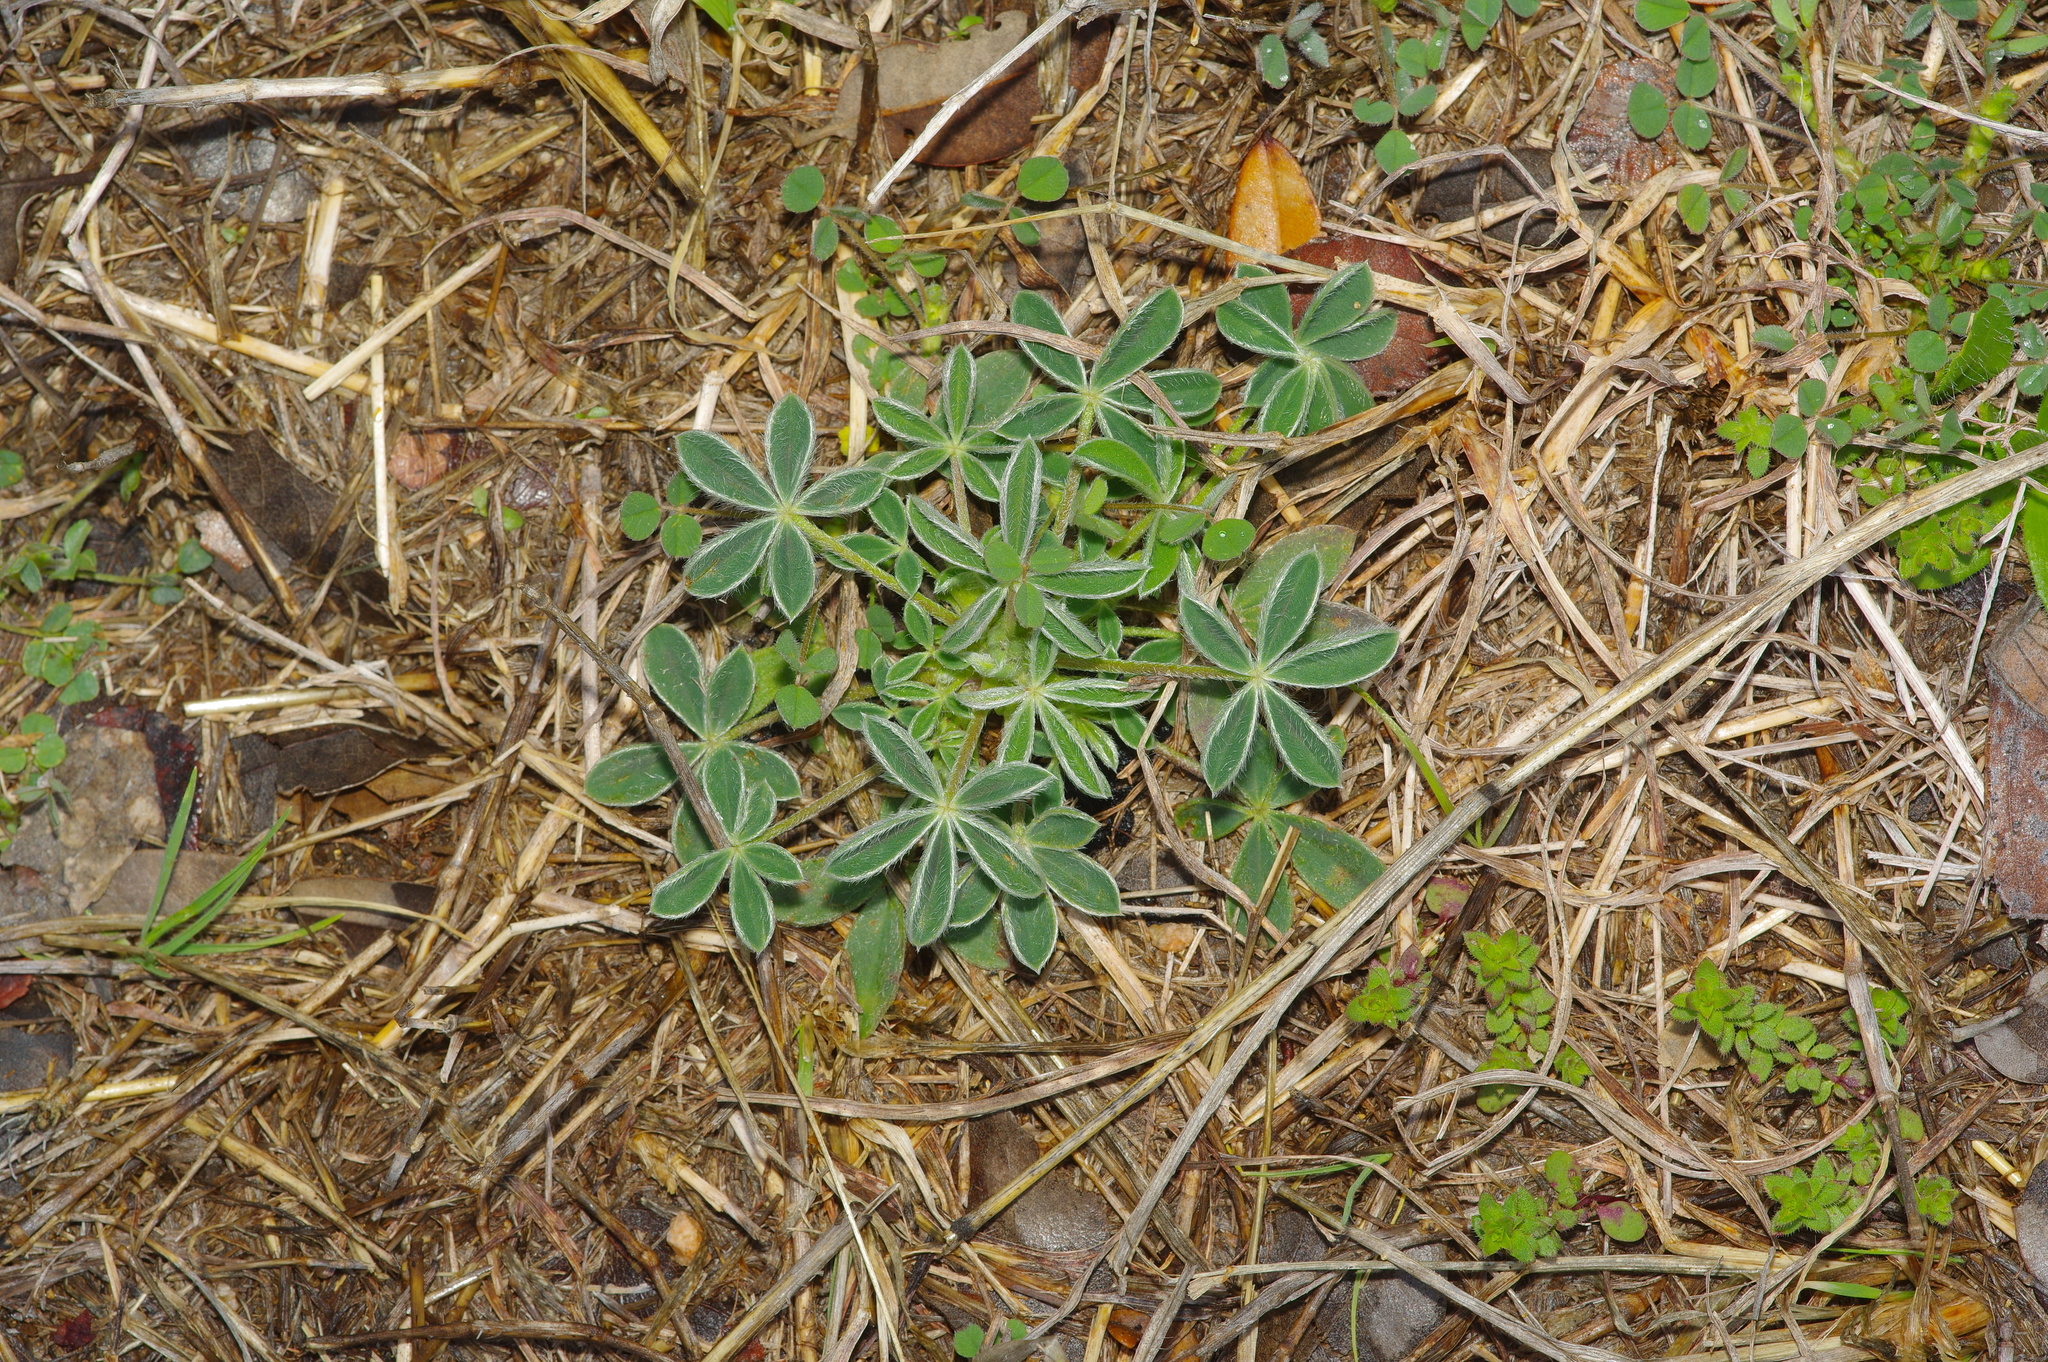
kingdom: Plantae
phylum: Tracheophyta
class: Magnoliopsida
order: Fabales
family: Fabaceae
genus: Lupinus
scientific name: Lupinus texensis
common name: Texas bluebonnet
